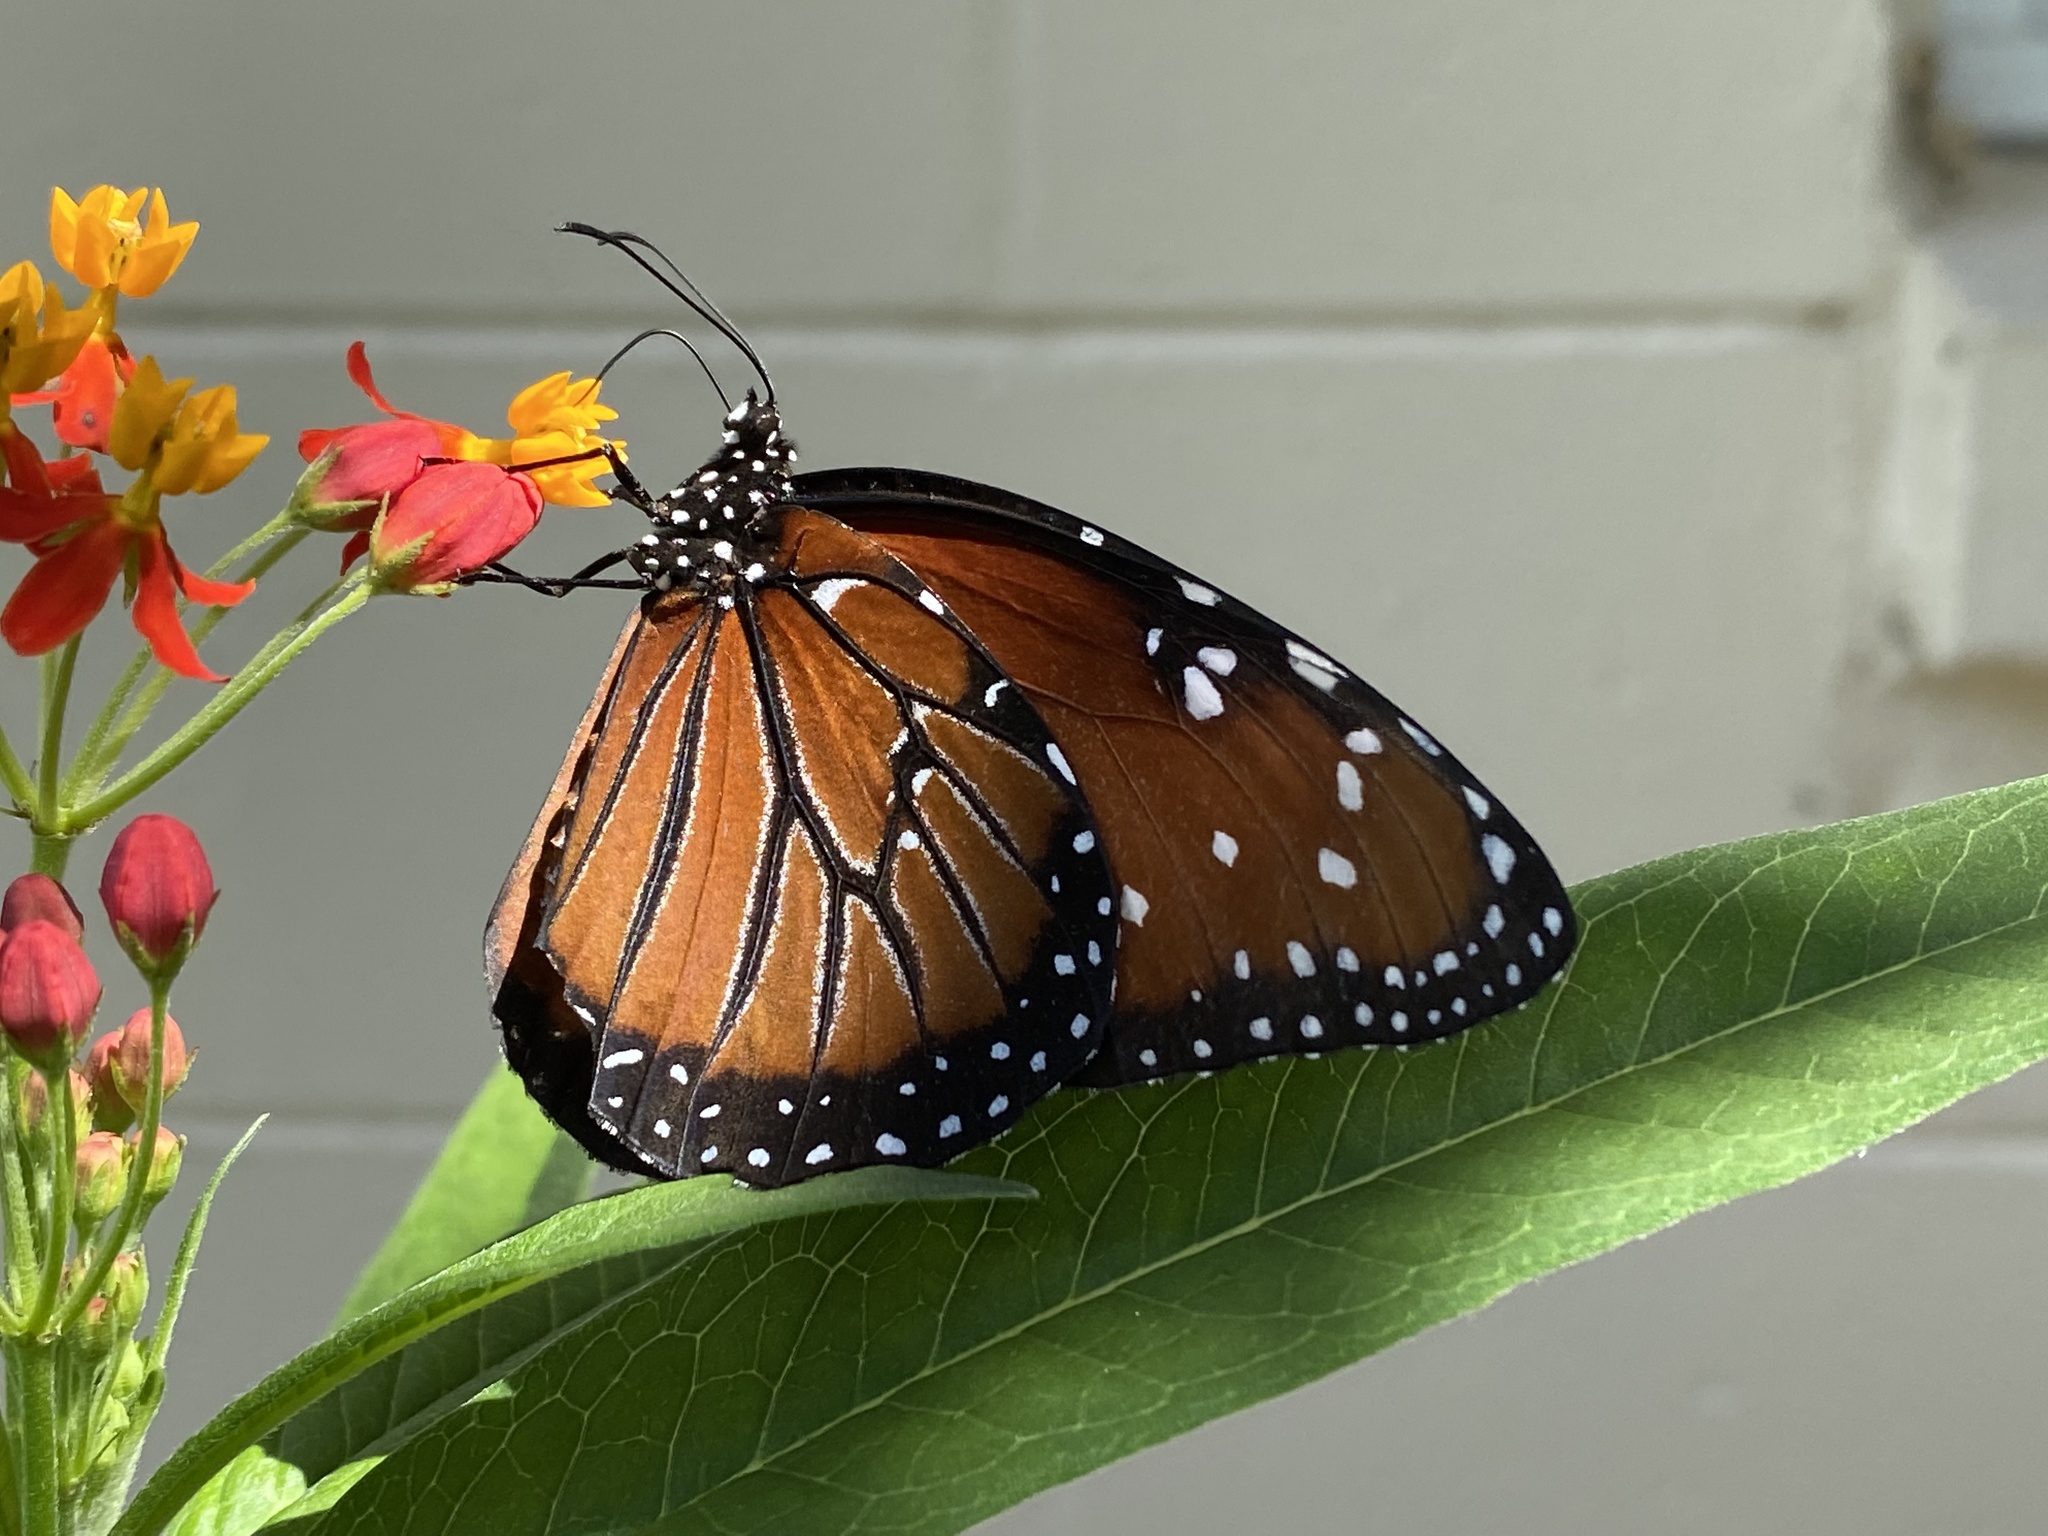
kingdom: Animalia
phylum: Arthropoda
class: Insecta
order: Lepidoptera
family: Nymphalidae
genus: Danaus
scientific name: Danaus gilippus
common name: Queen
